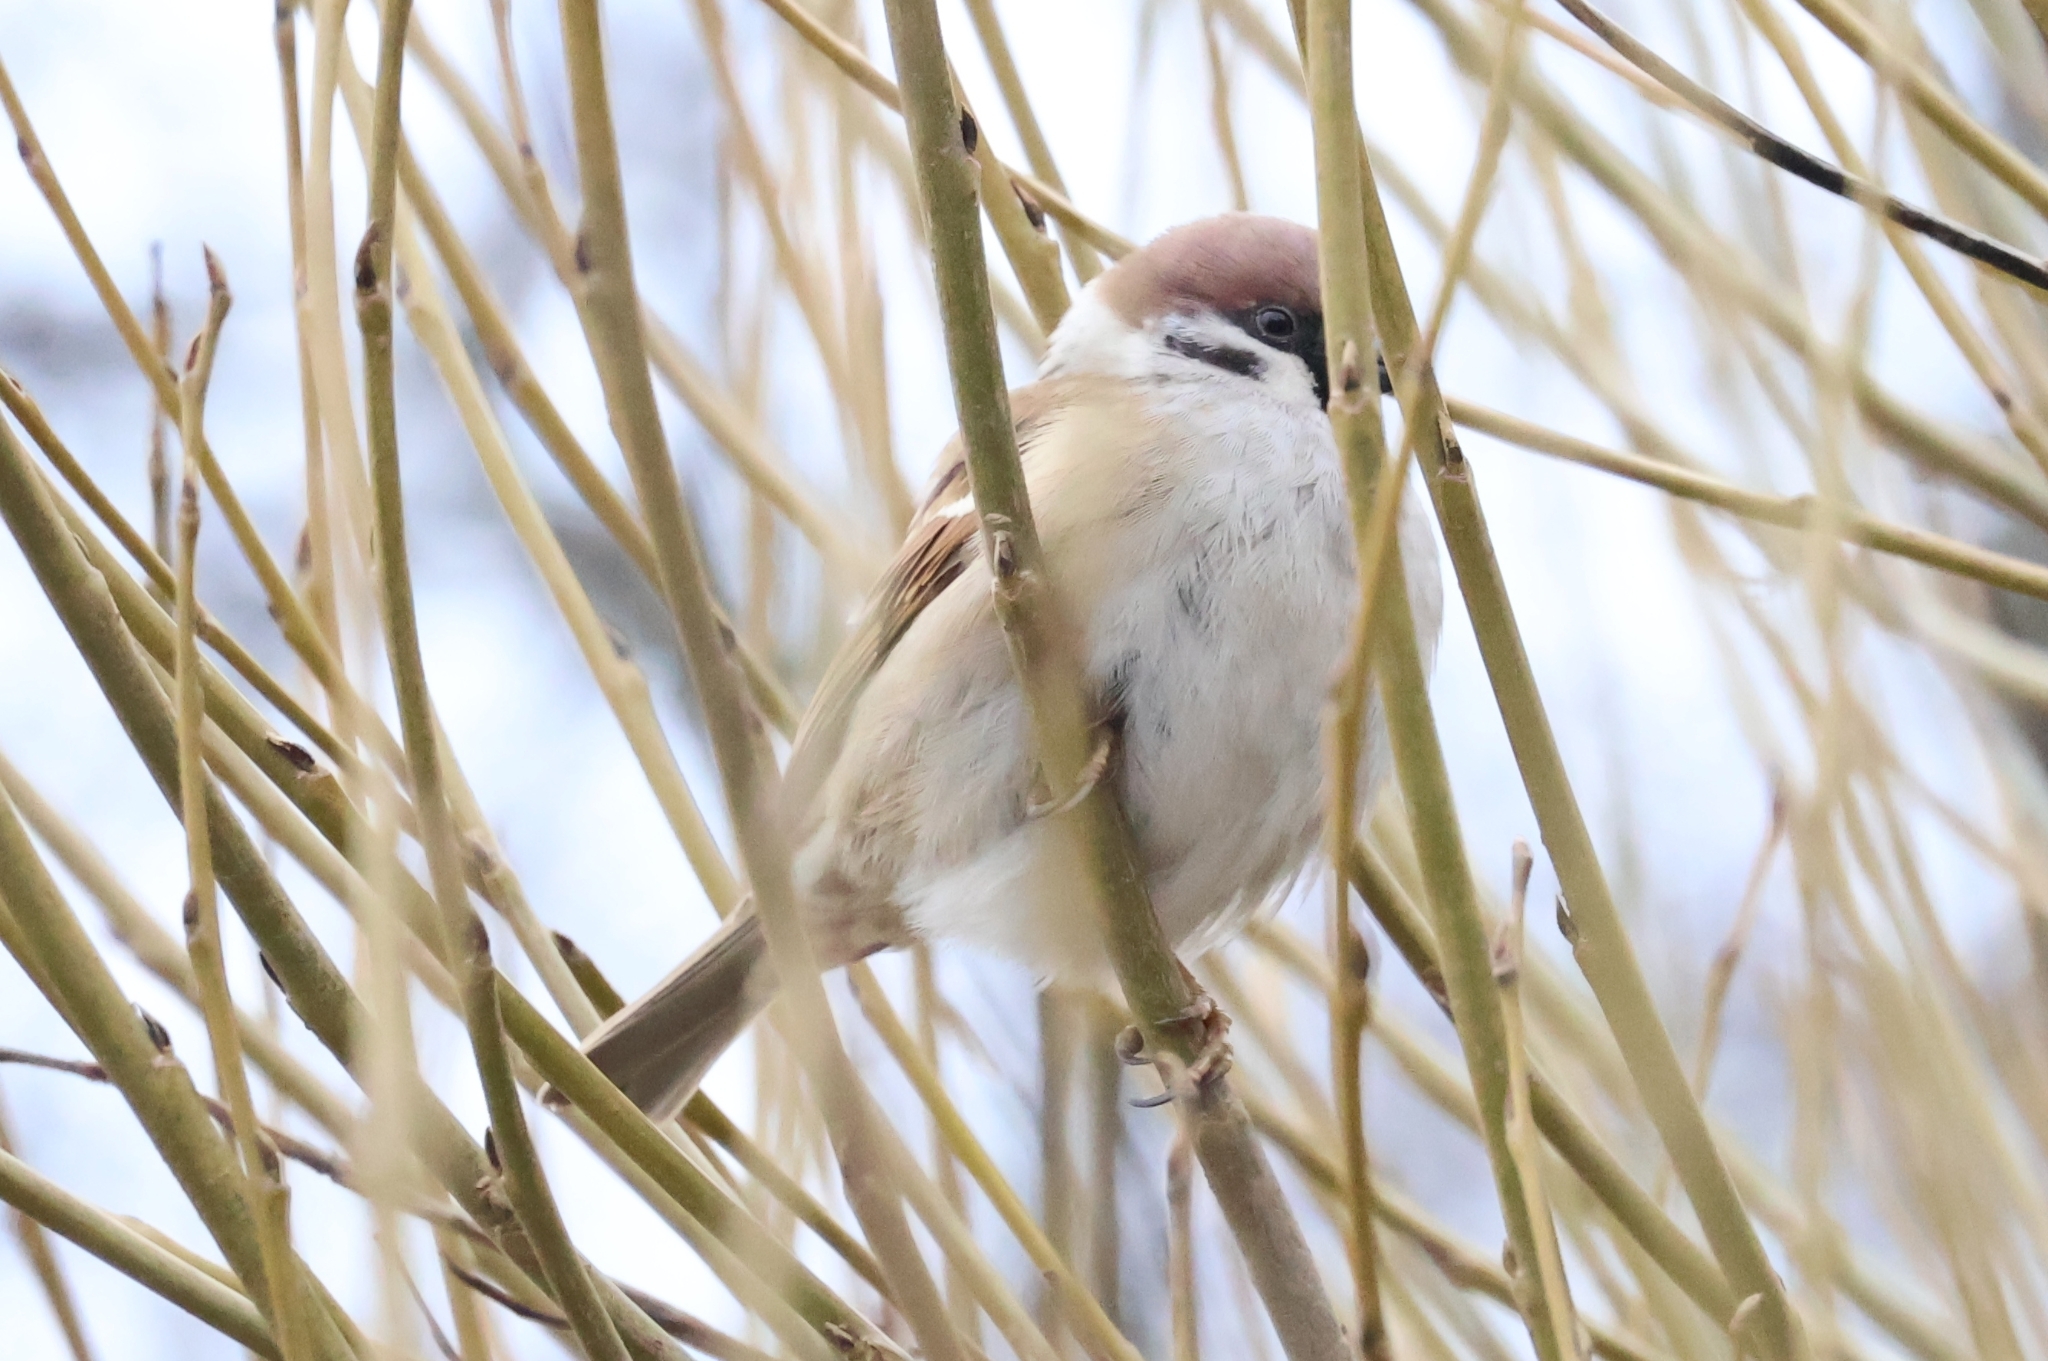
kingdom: Animalia
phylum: Chordata
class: Aves
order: Passeriformes
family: Passeridae
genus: Passer
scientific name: Passer montanus
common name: Eurasian tree sparrow
